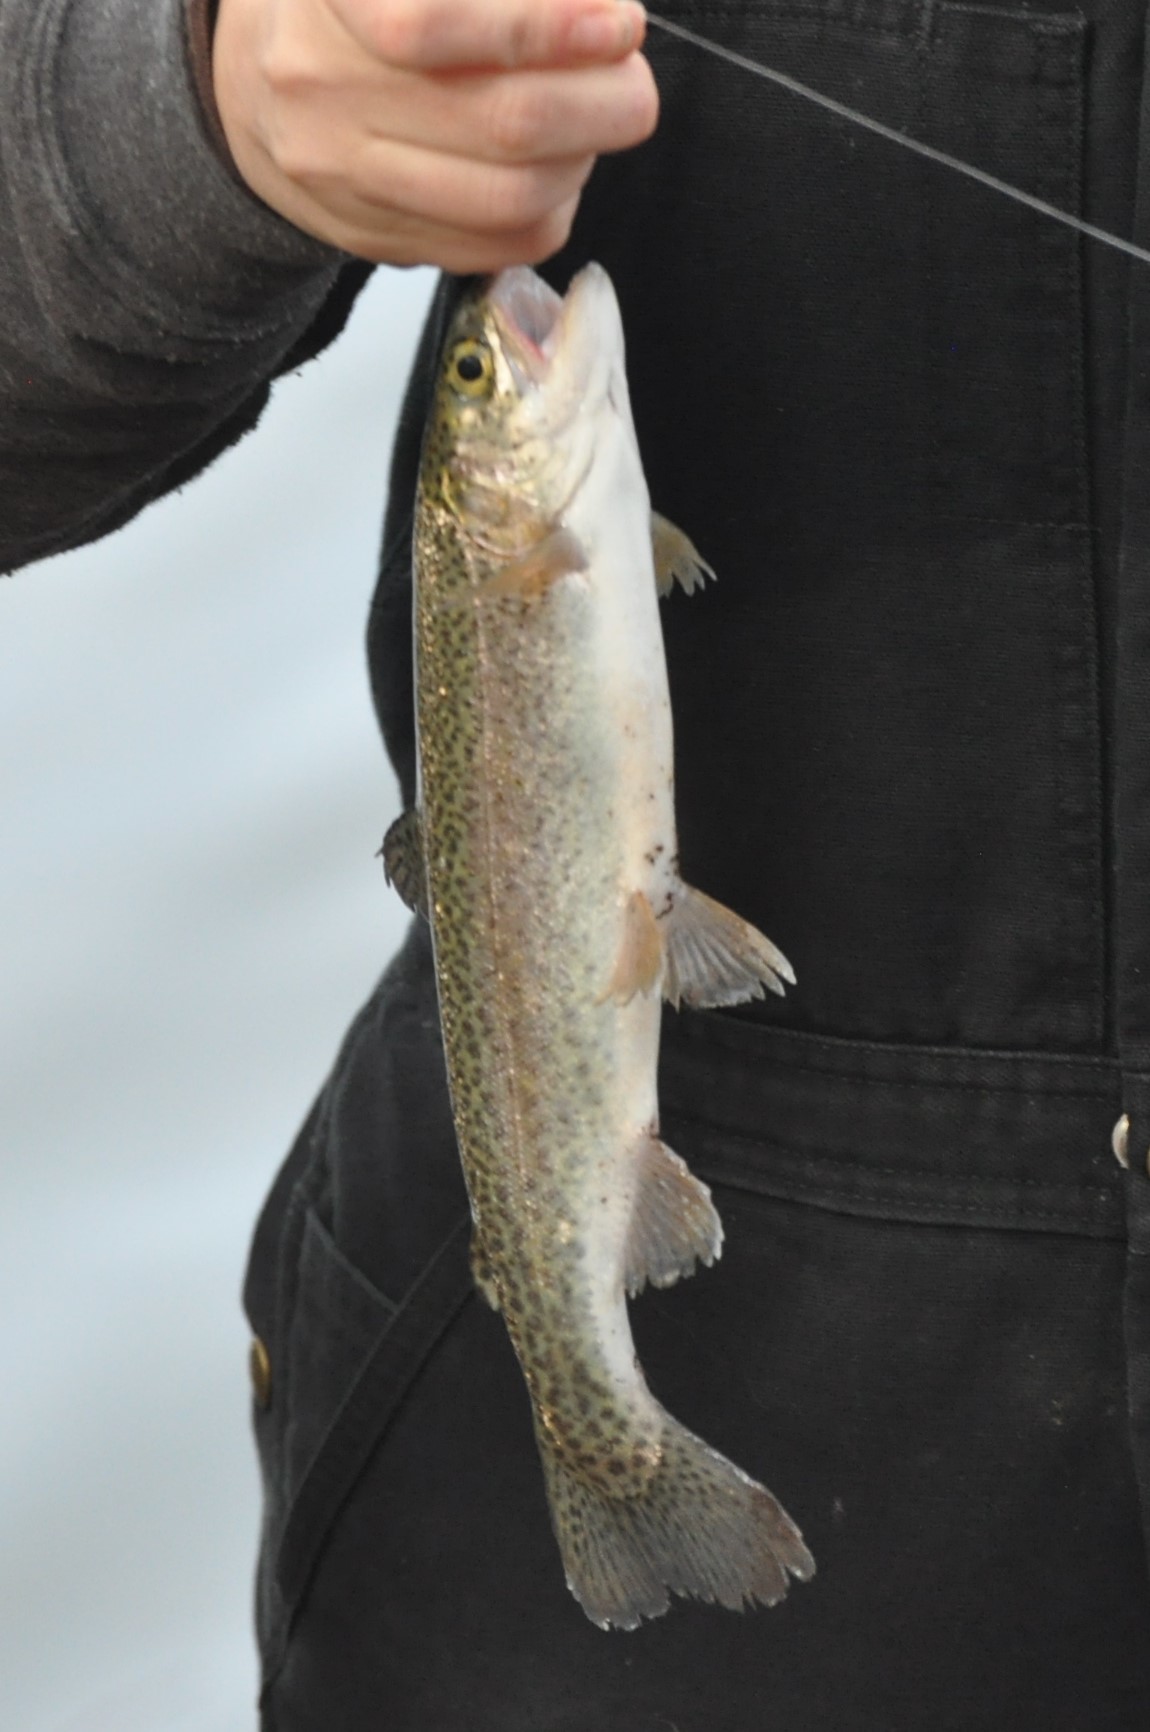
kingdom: Animalia
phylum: Chordata
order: Salmoniformes
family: Salmonidae
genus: Oncorhynchus
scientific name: Oncorhynchus mykiss
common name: Rainbow trout
